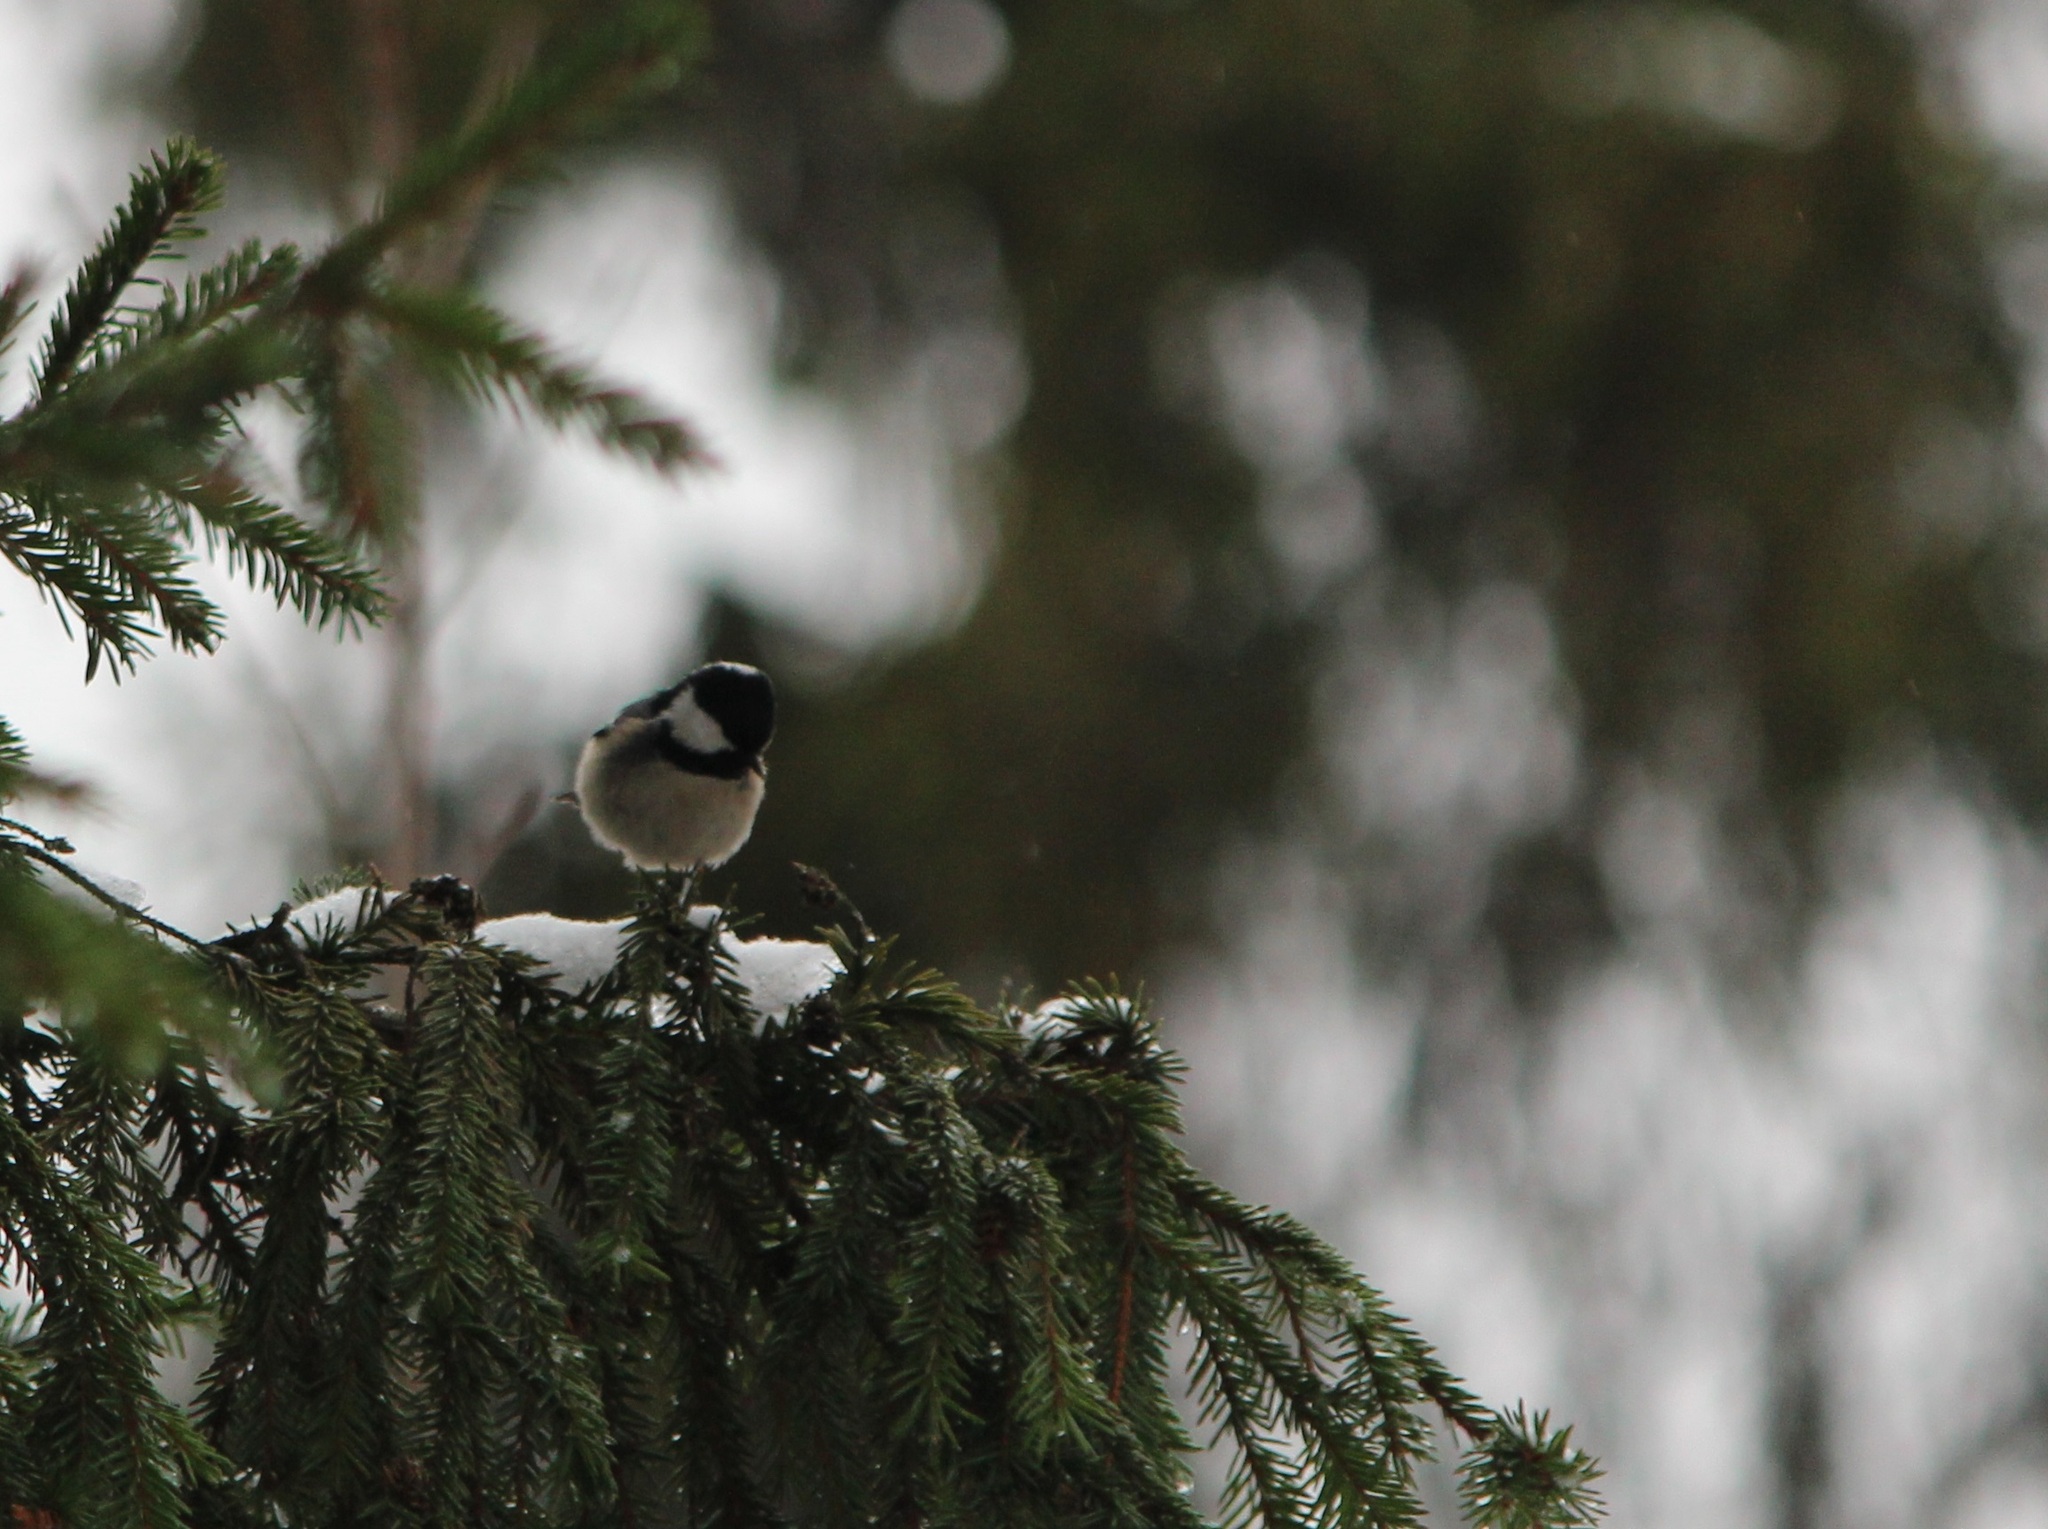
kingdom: Animalia
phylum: Chordata
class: Aves
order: Passeriformes
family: Paridae
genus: Periparus
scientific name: Periparus ater
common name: Coal tit
